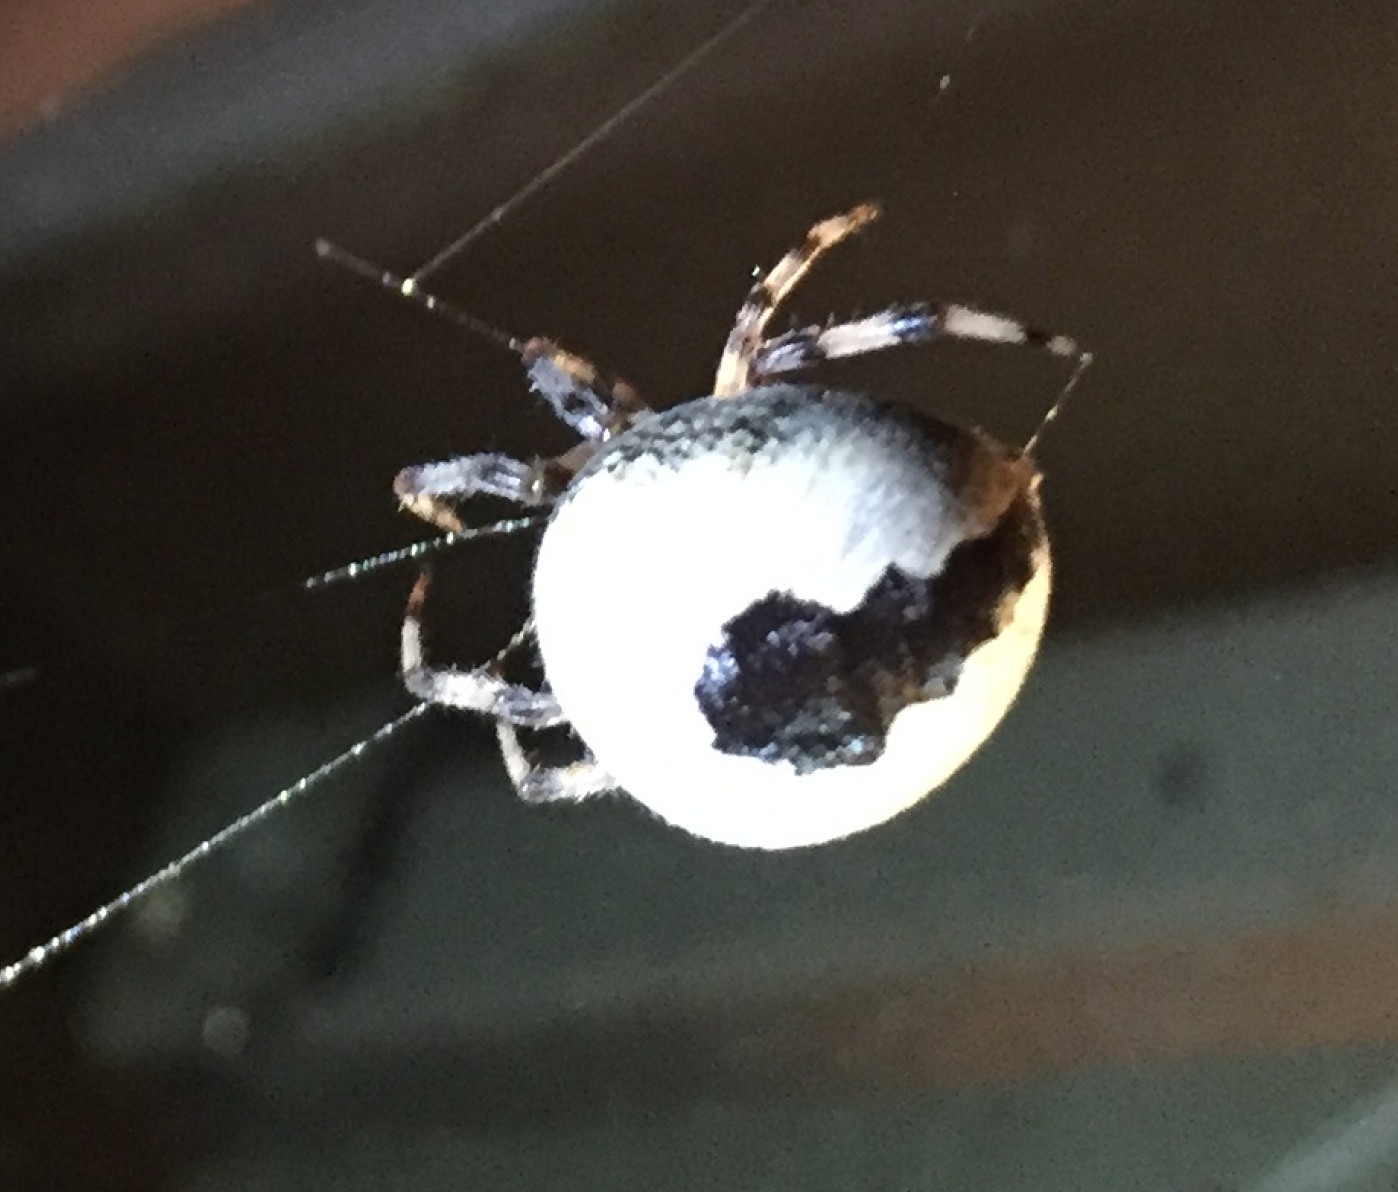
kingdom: Animalia
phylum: Arthropoda
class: Arachnida
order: Araneae
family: Araneidae
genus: Araneus
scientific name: Araneus marmoreus
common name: Marbled orbweaver
